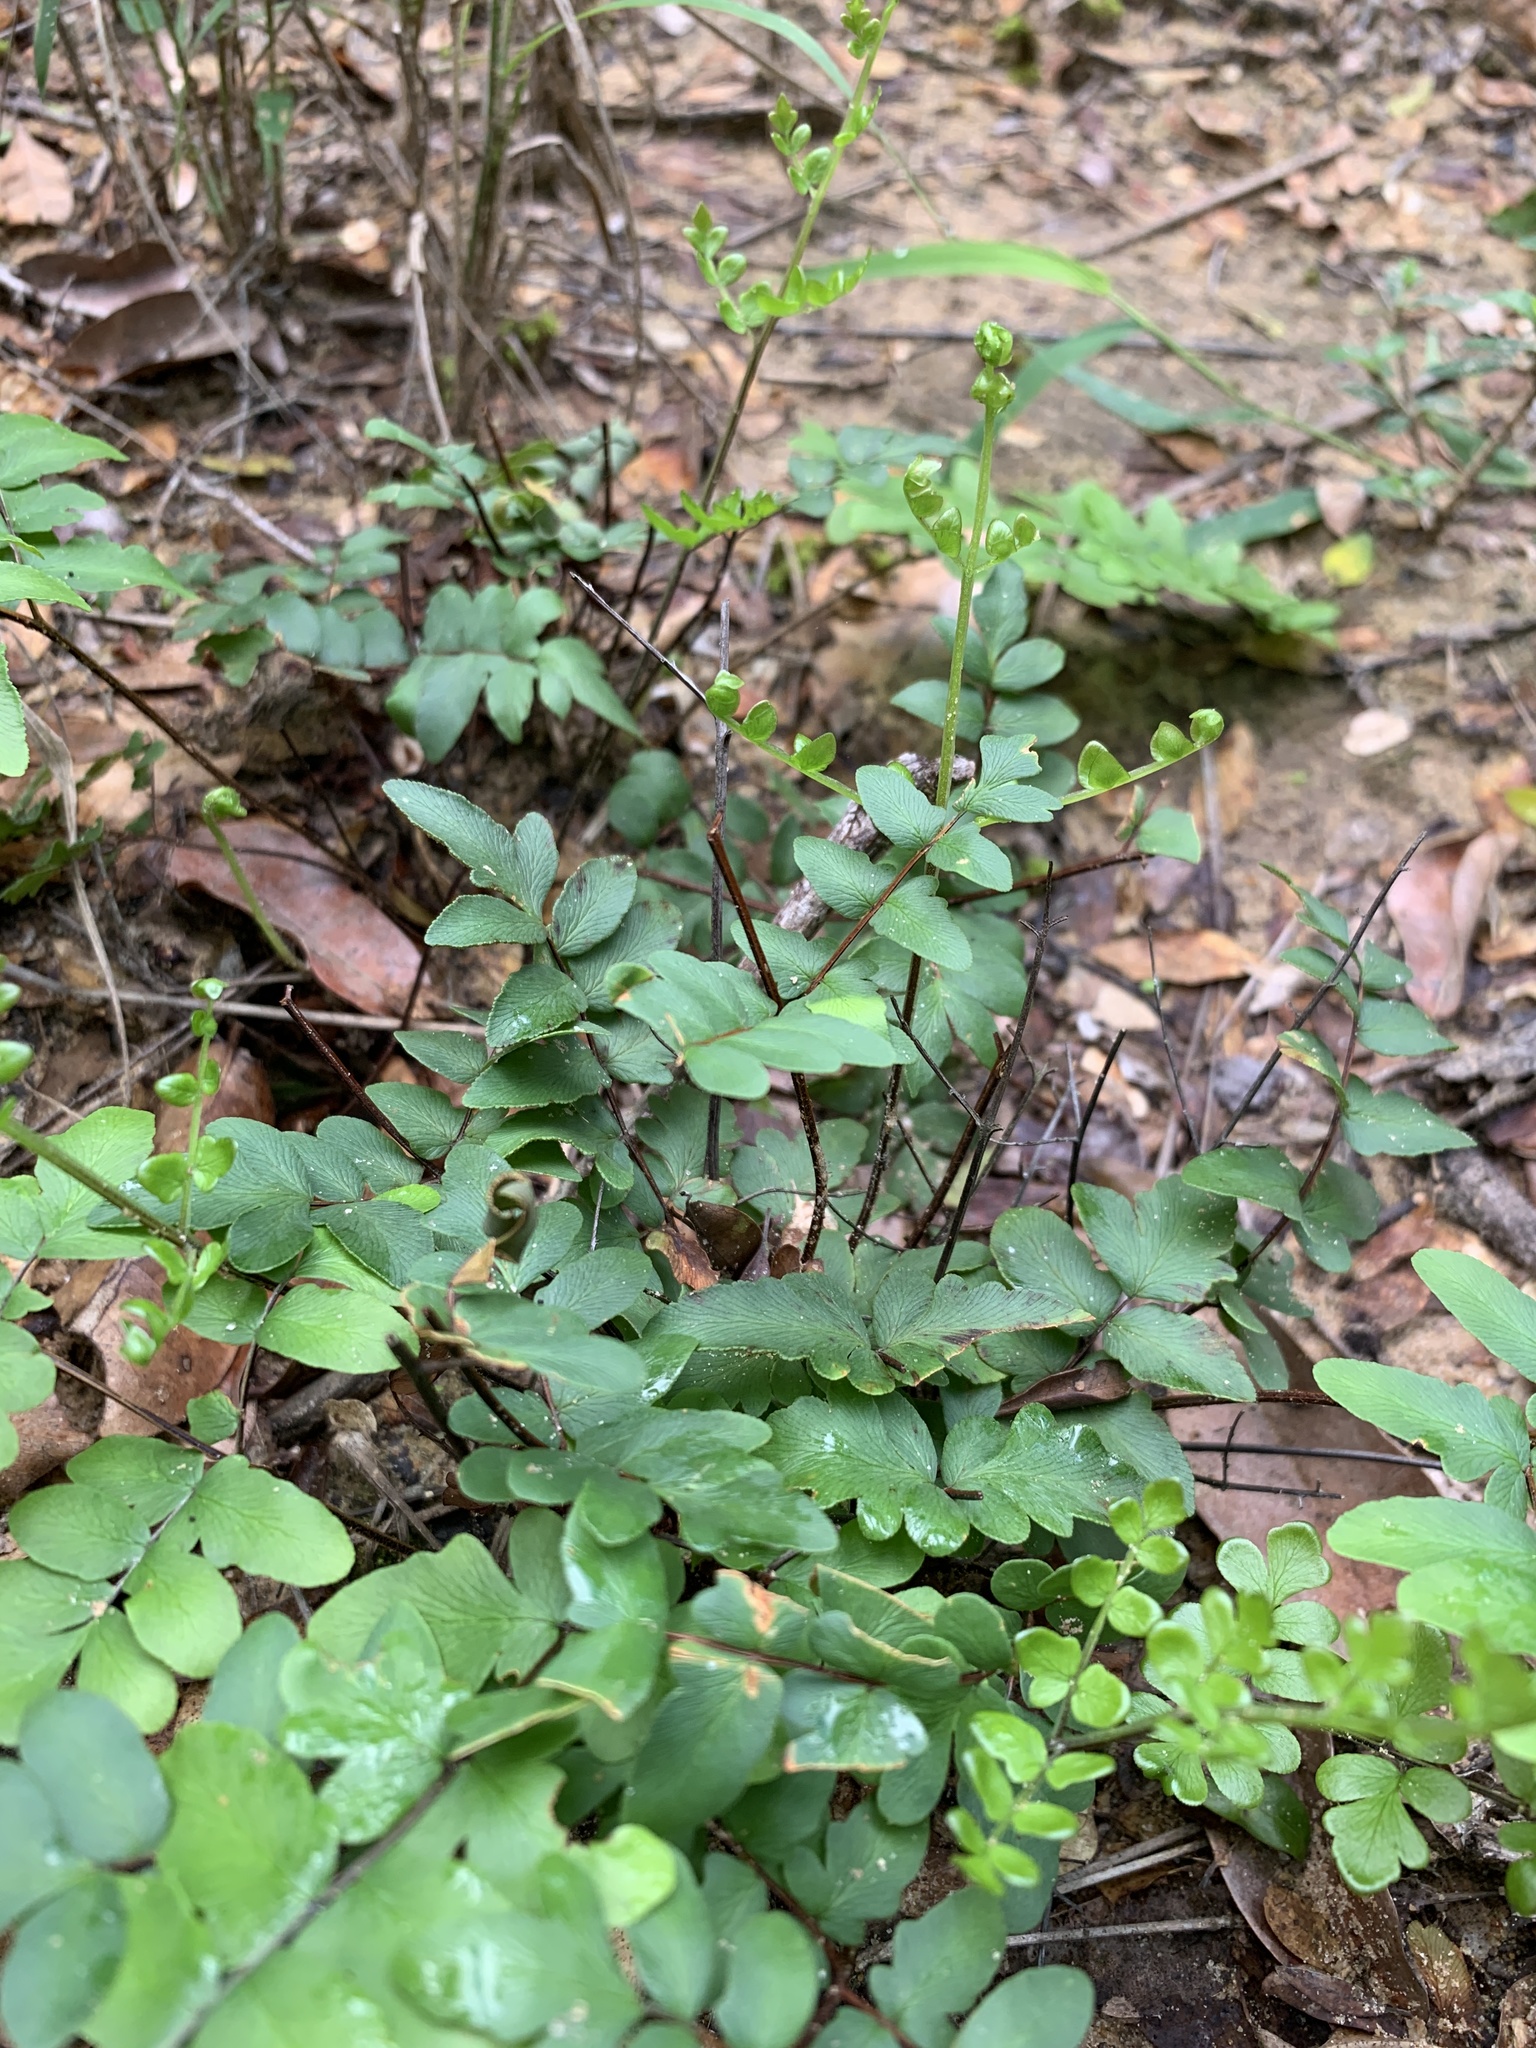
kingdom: Plantae
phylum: Tracheophyta
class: Polypodiopsida
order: Polypodiales
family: Pteridaceae
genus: Cheilanthes
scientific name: Cheilanthes viridis
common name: Green cliffbrake
